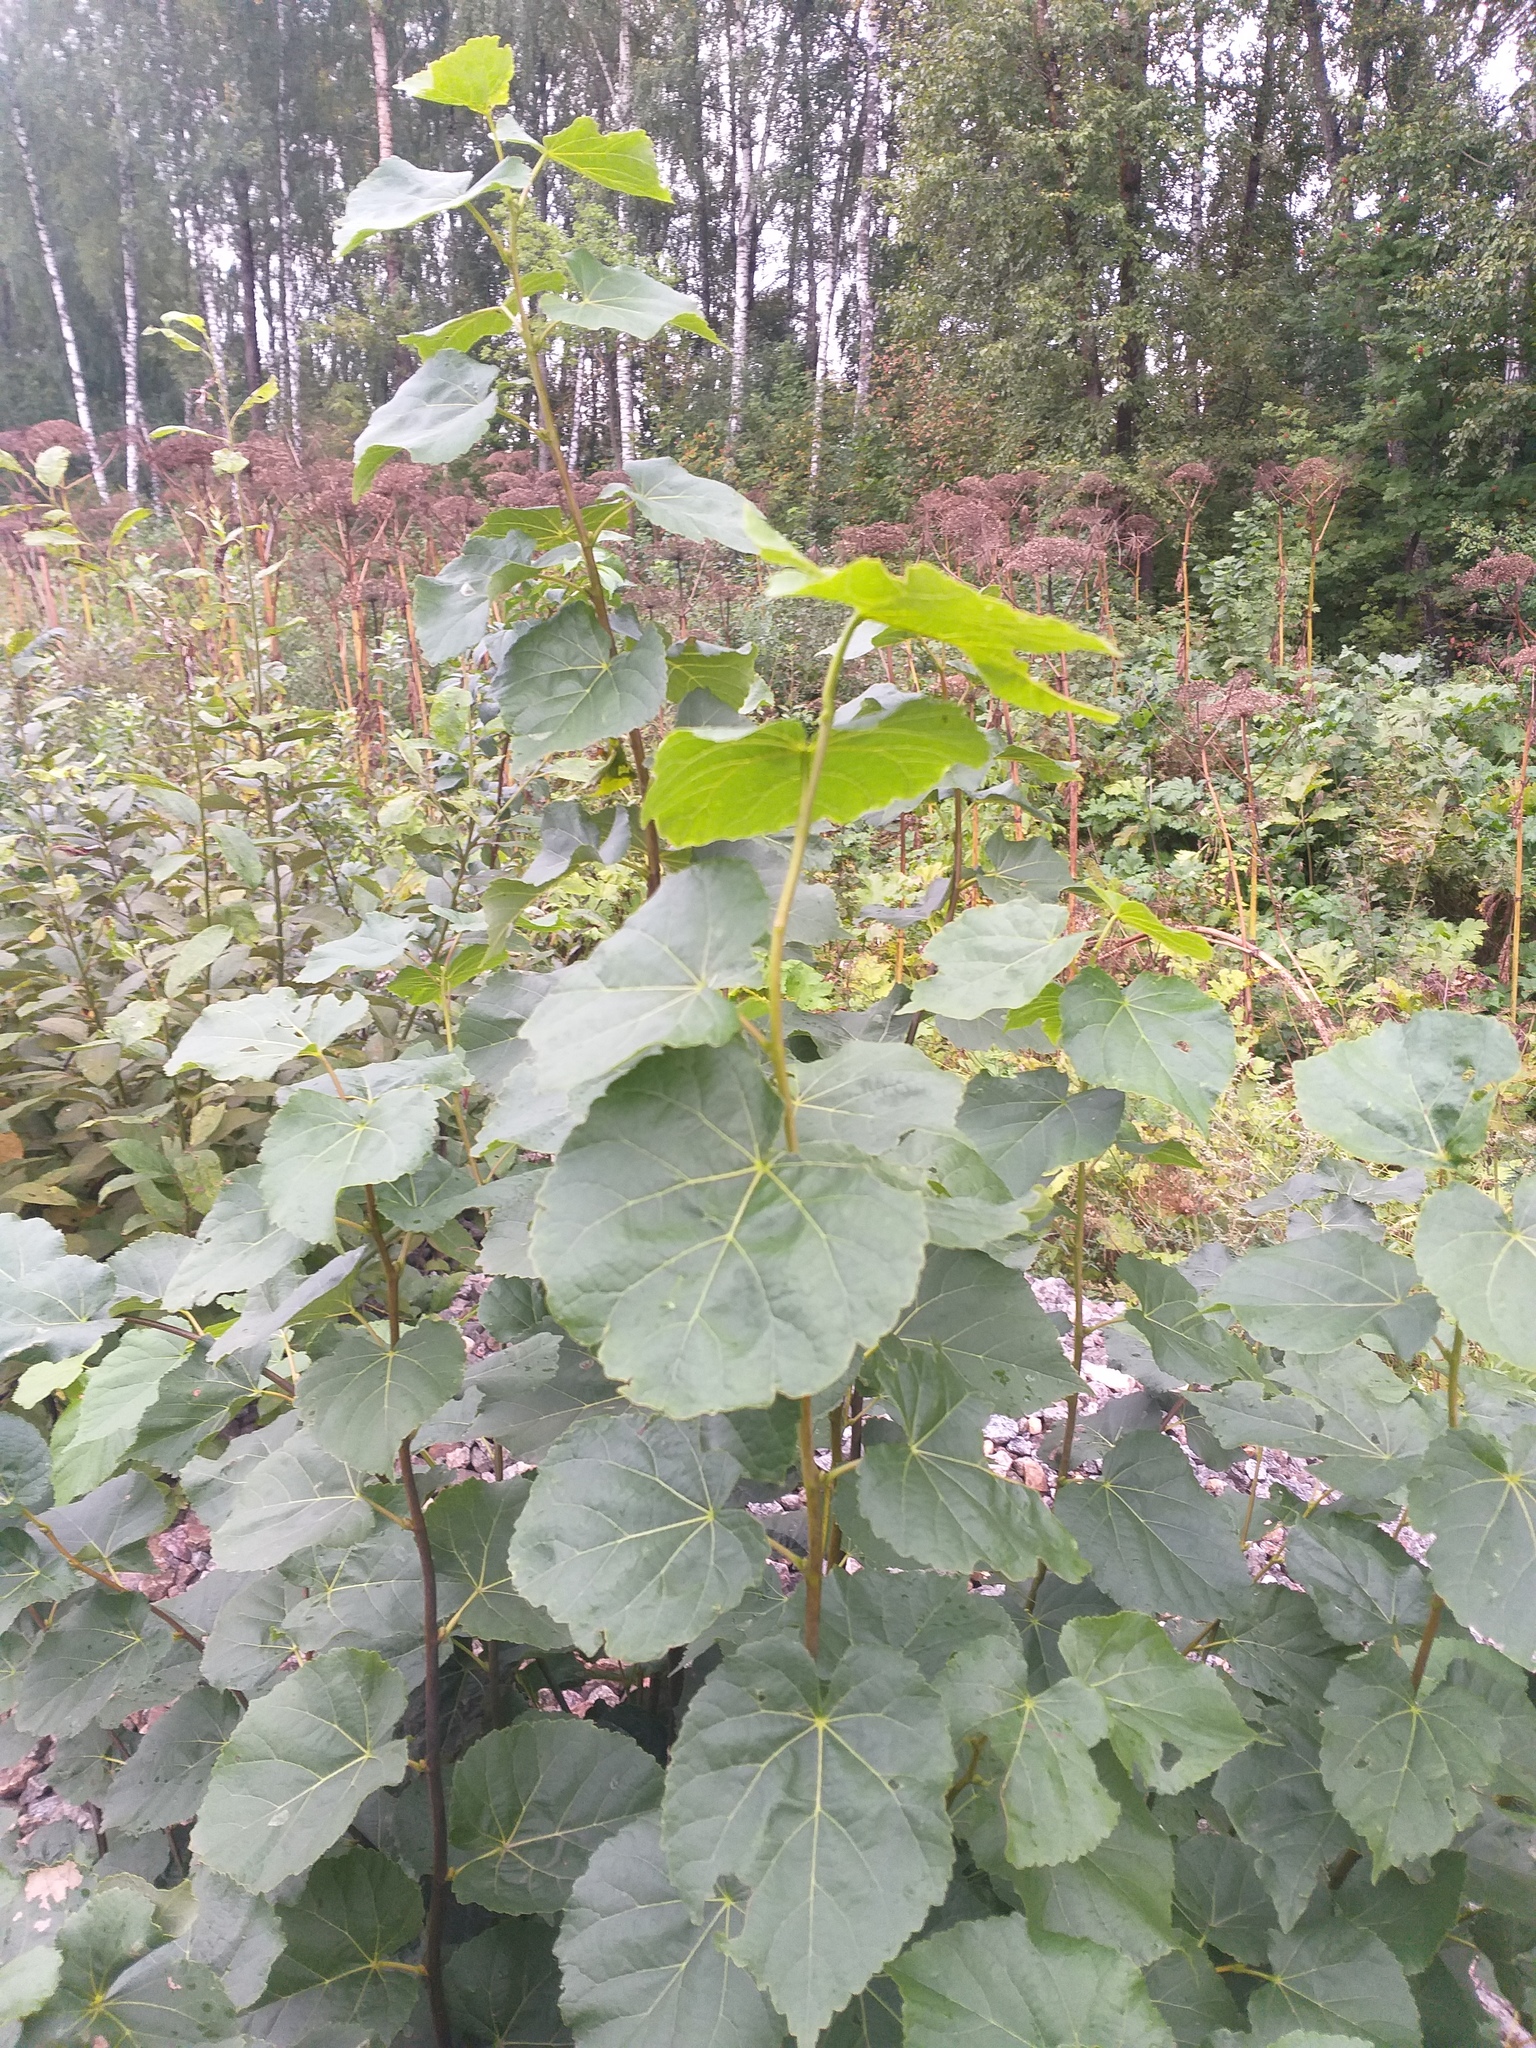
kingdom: Plantae
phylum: Tracheophyta
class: Magnoliopsida
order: Malvales
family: Malvaceae
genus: Tilia
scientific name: Tilia cordata
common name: Small-leaved lime
